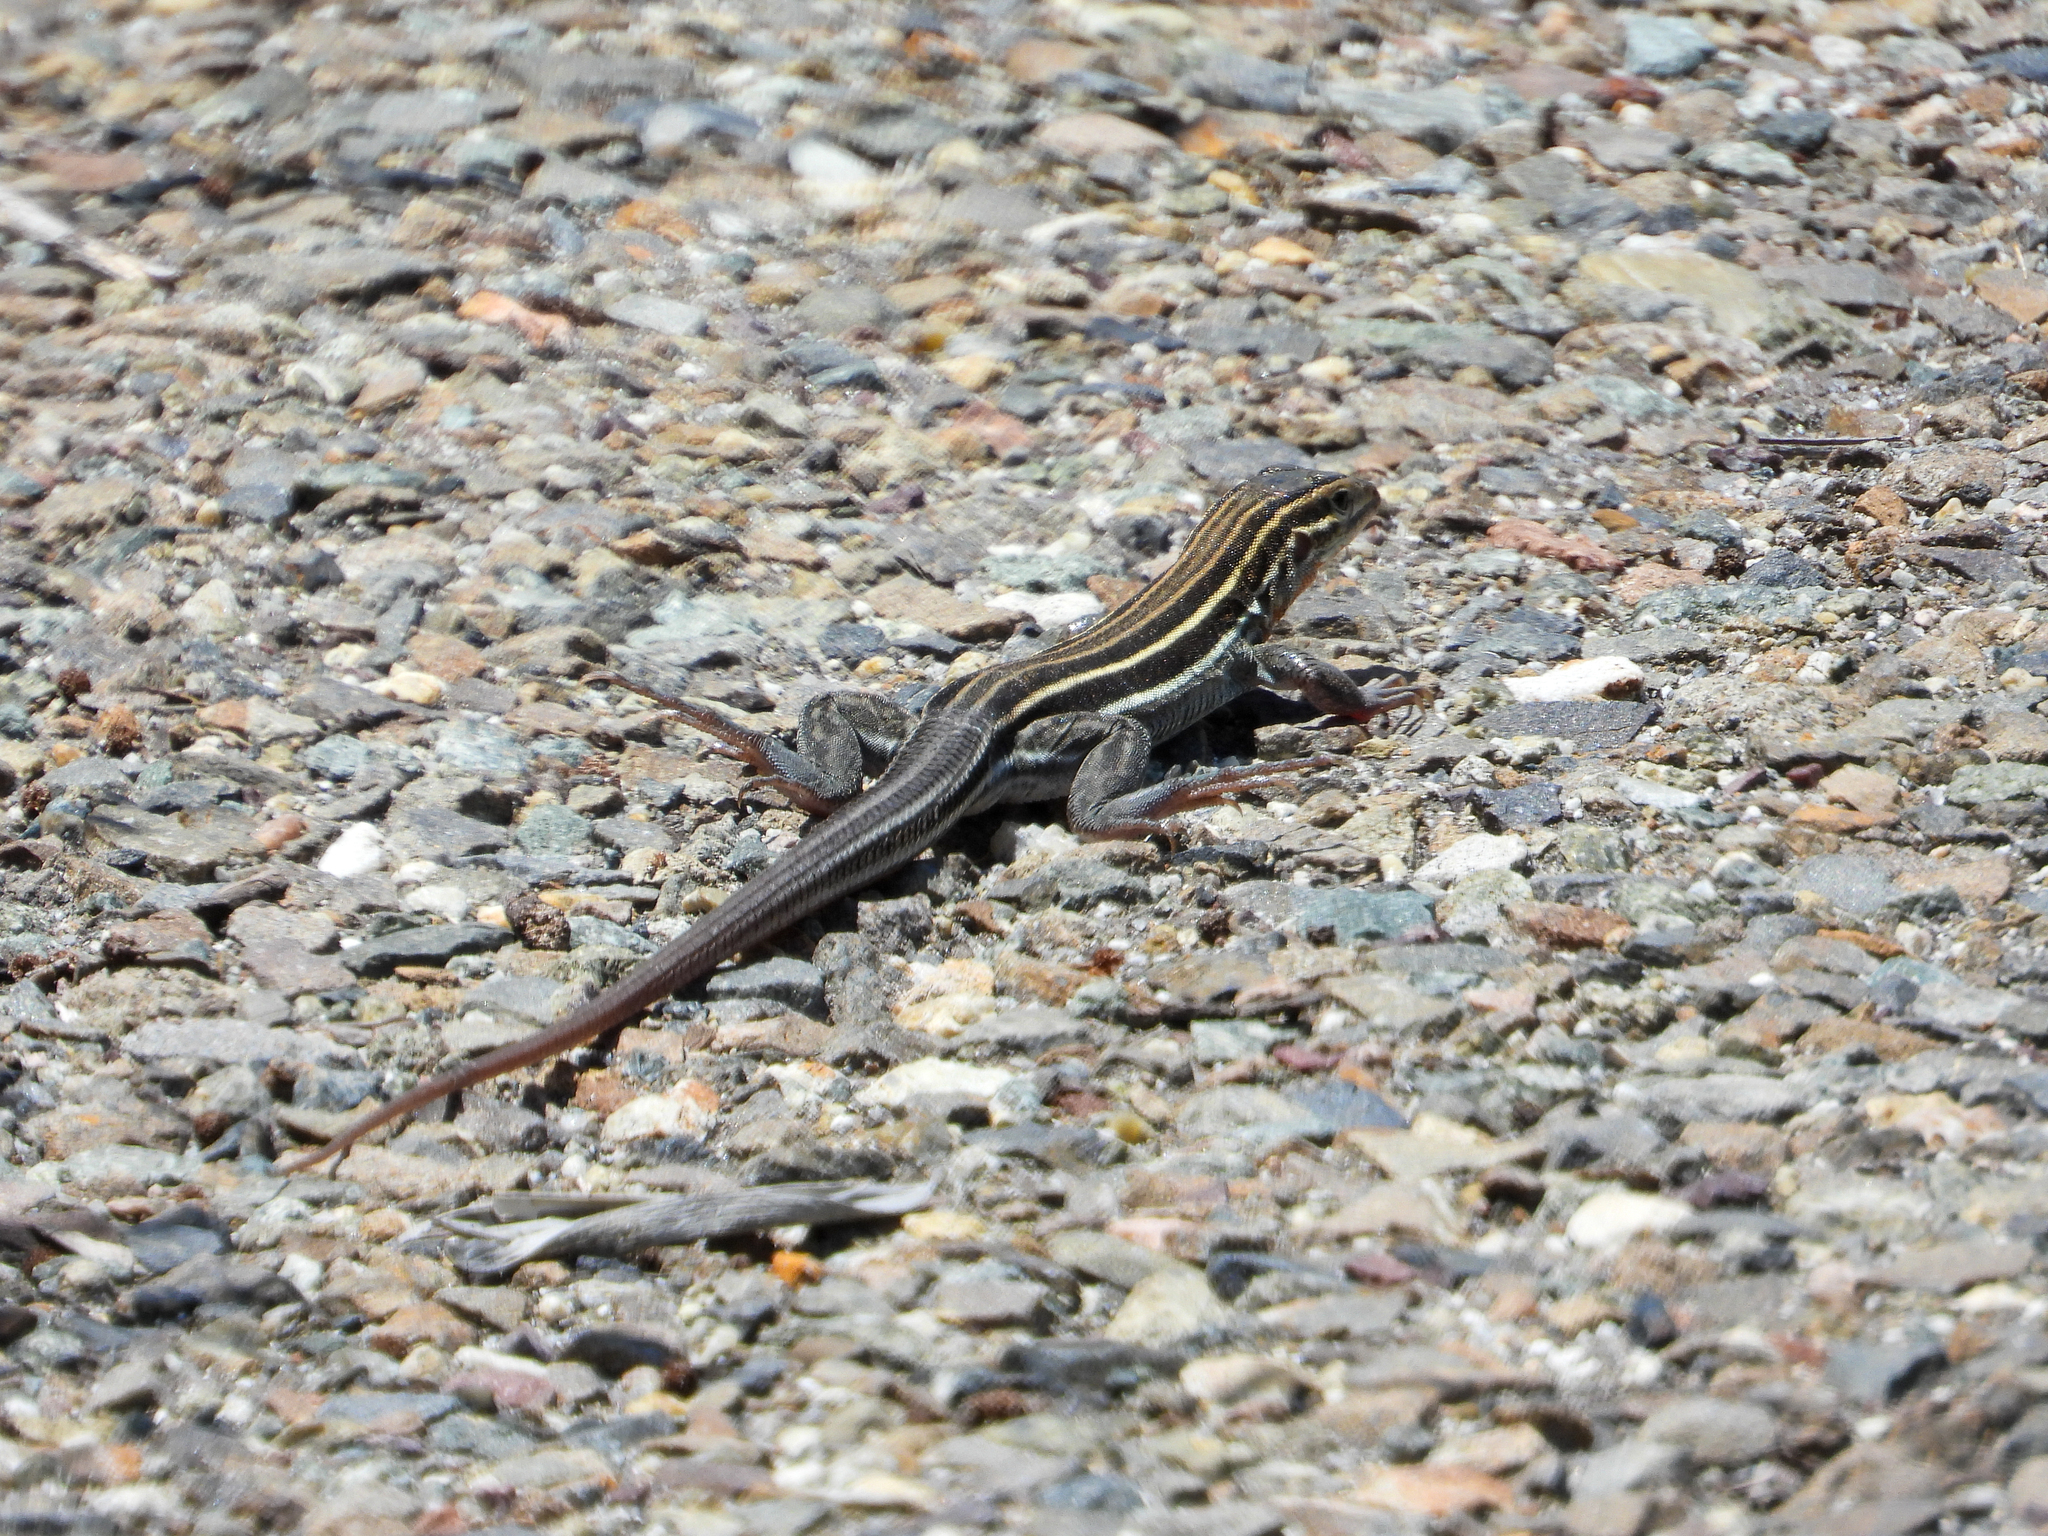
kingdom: Animalia
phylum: Chordata
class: Squamata
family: Teiidae
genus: Aspidoscelis
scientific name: Aspidoscelis hyperythrus
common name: Orange-throated race-runner
